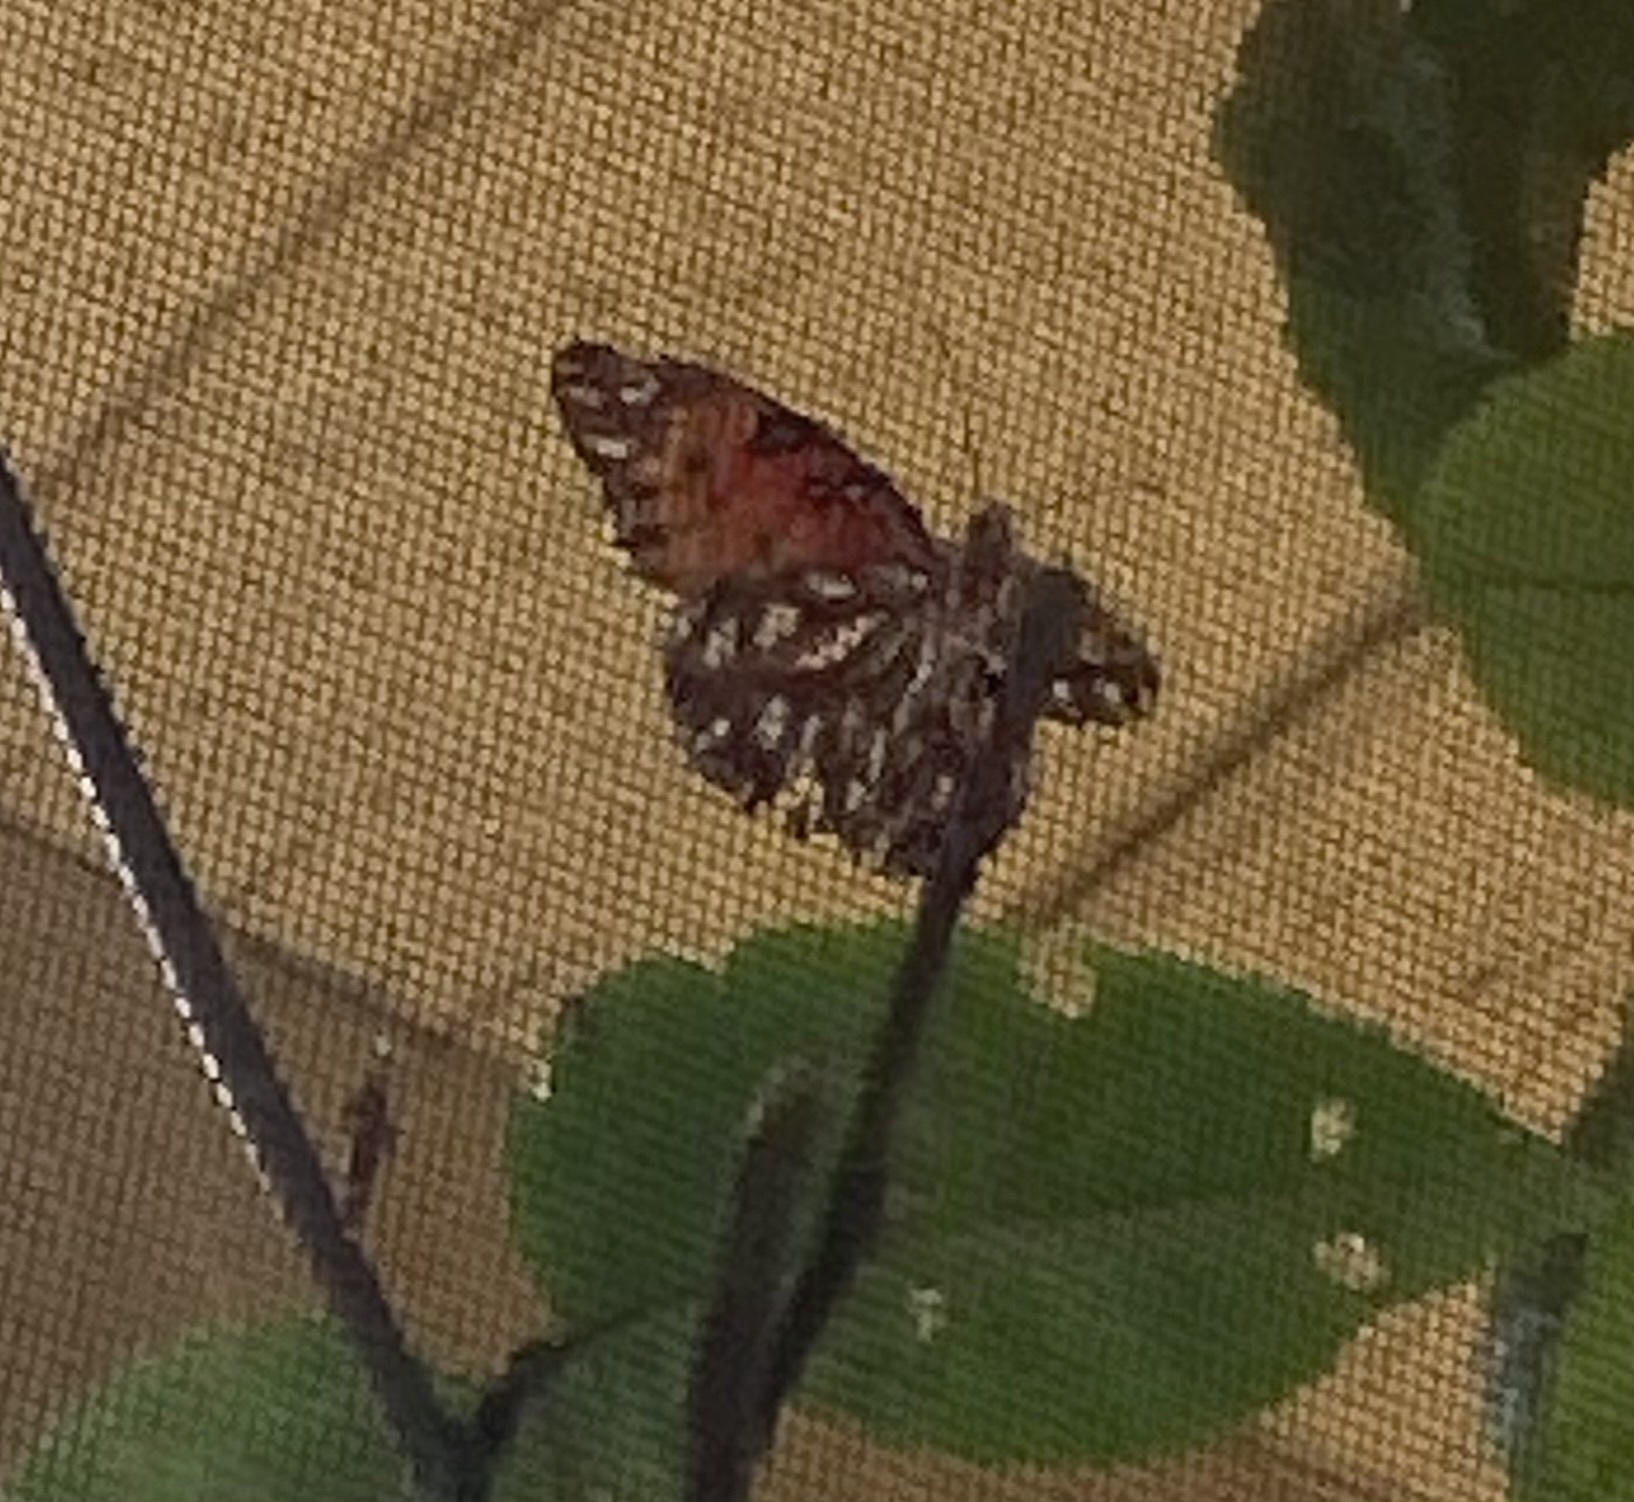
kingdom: Animalia
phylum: Arthropoda
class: Insecta
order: Lepidoptera
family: Nymphalidae
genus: Dione
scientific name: Dione vanillae
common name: Gulf fritillary
